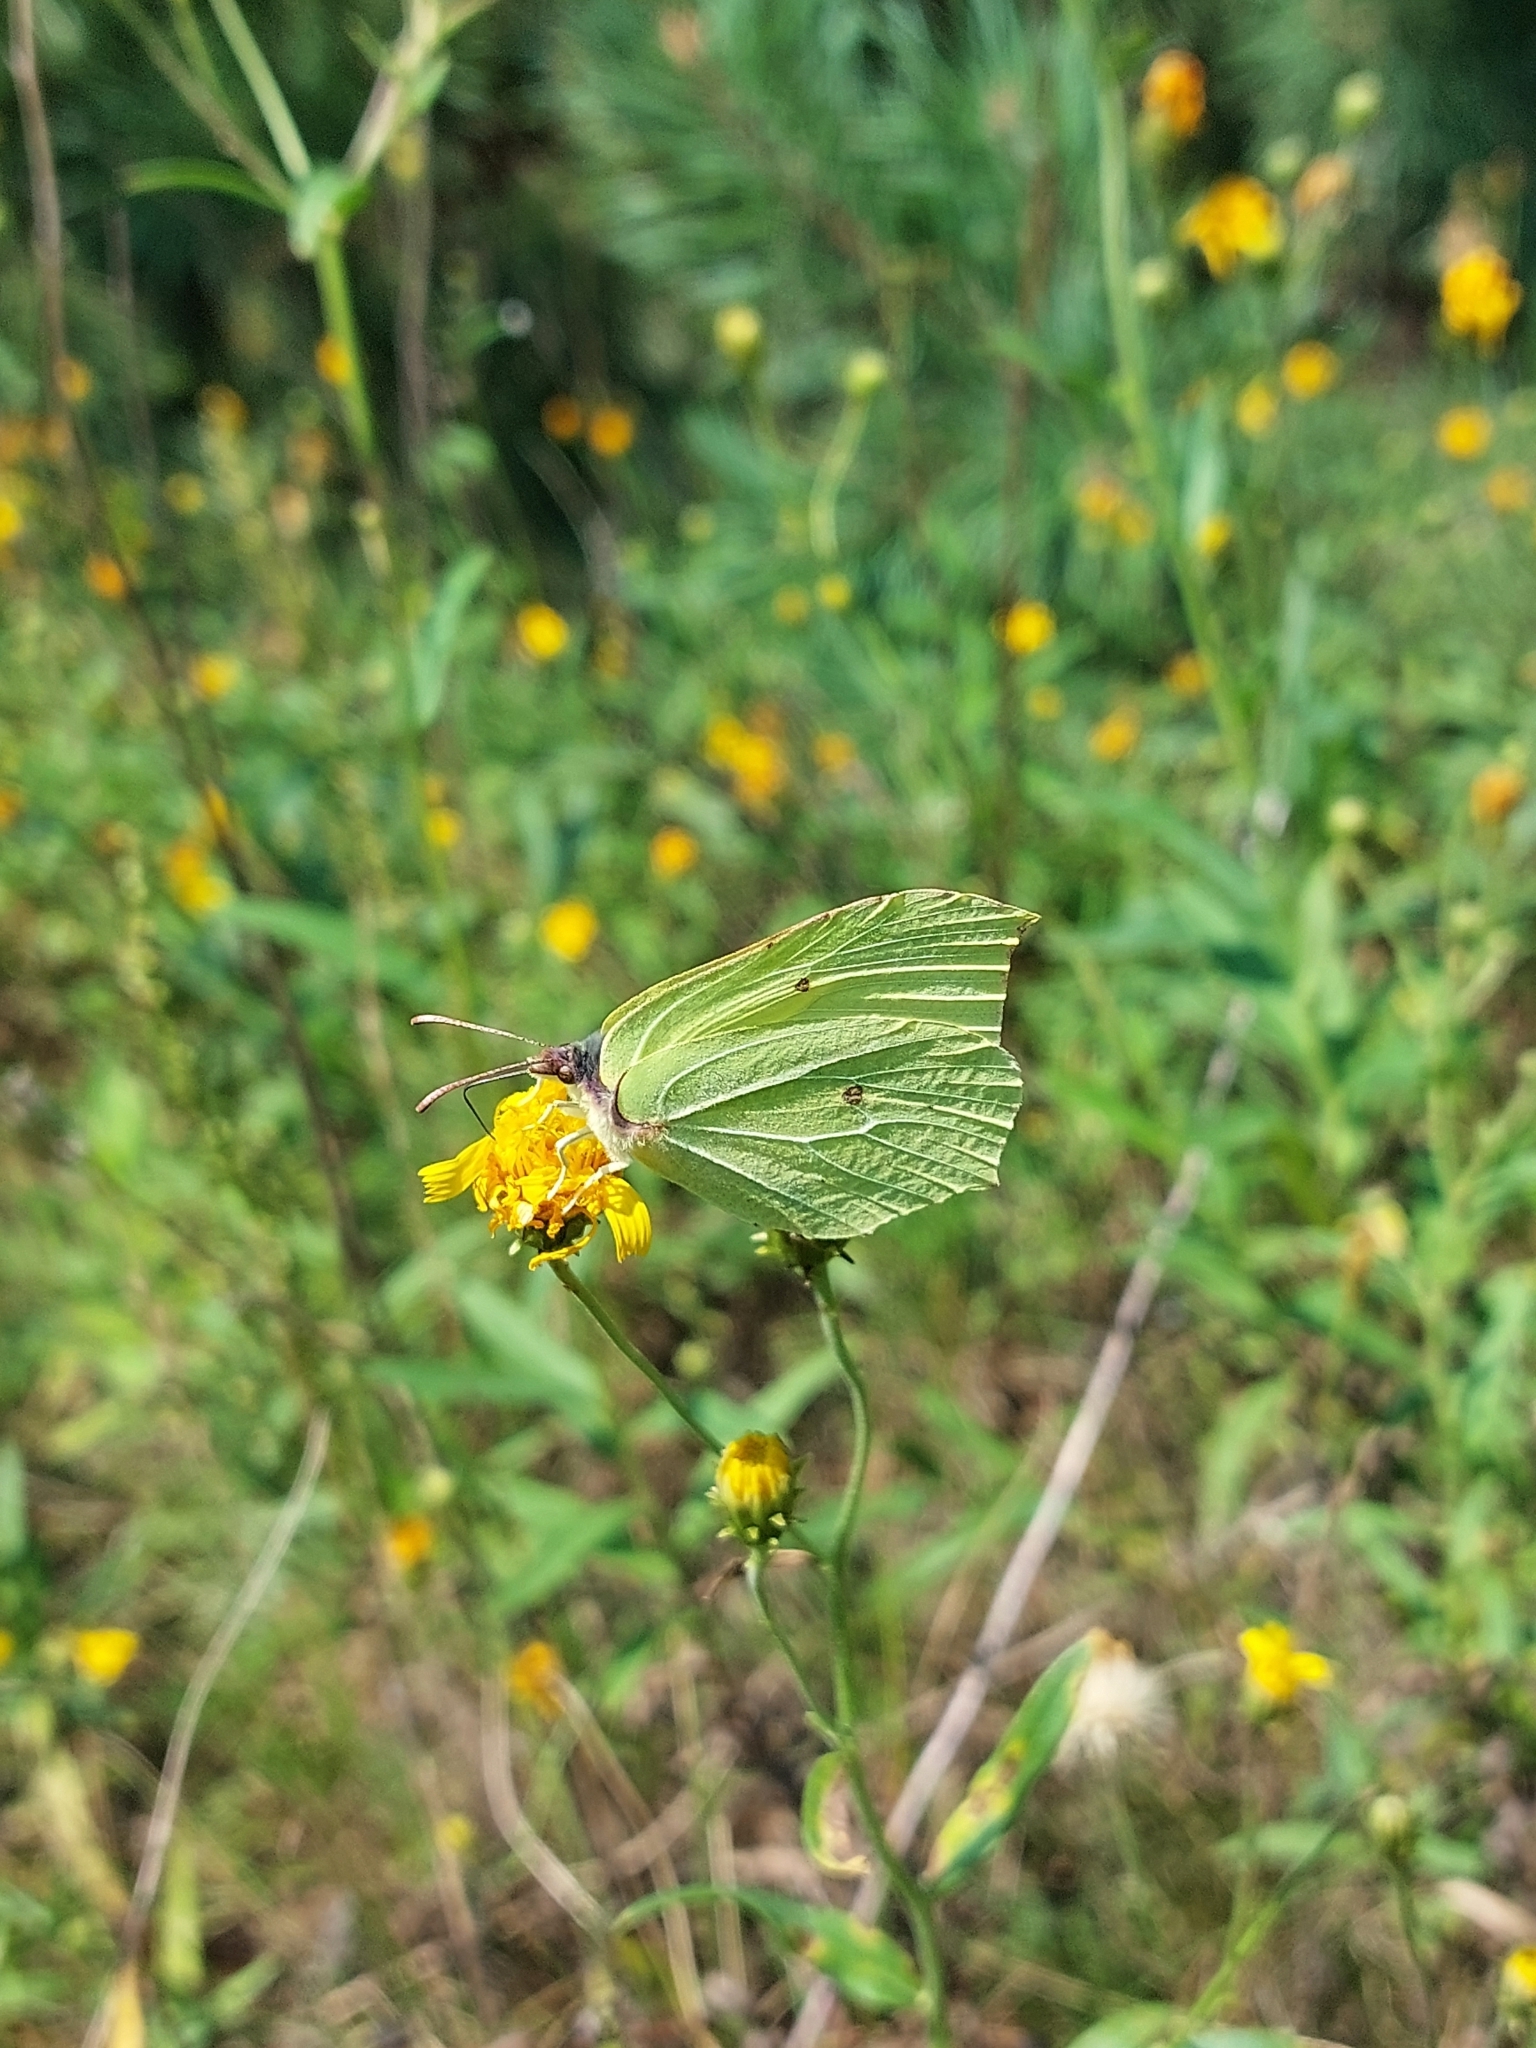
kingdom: Animalia
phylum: Arthropoda
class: Insecta
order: Lepidoptera
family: Pieridae
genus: Gonepteryx
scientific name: Gonepteryx rhamni
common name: Brimstone
